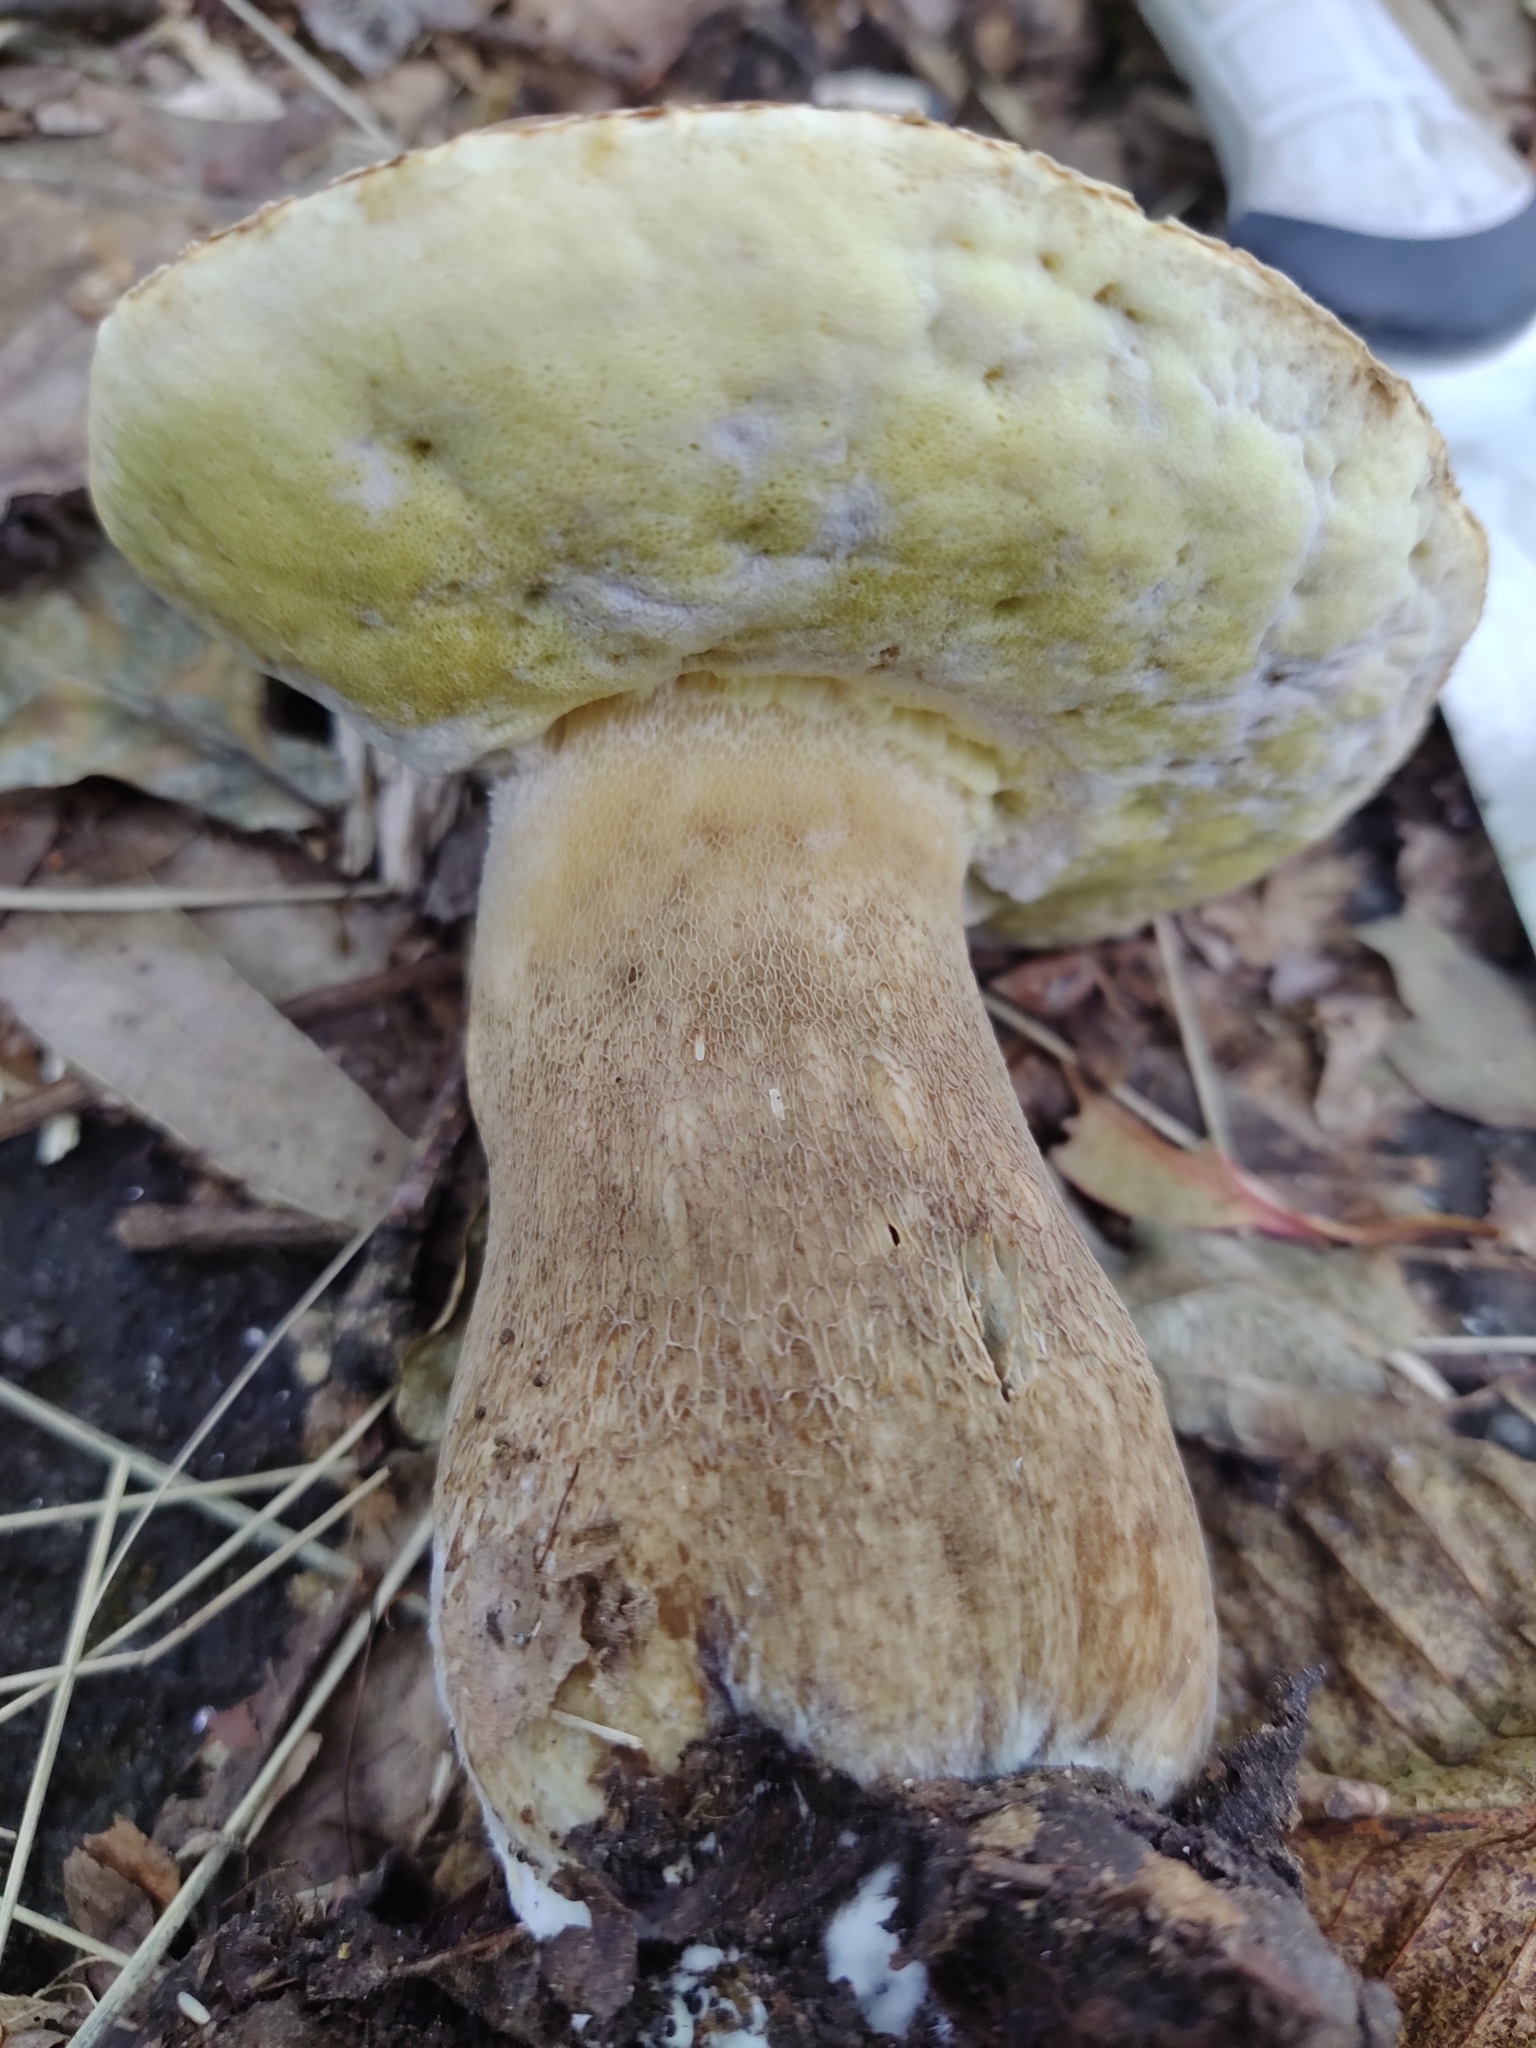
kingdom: Fungi
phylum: Basidiomycota
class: Agaricomycetes
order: Boletales
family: Boletaceae
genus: Boletus
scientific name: Boletus reticulatus
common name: Summer bolete
